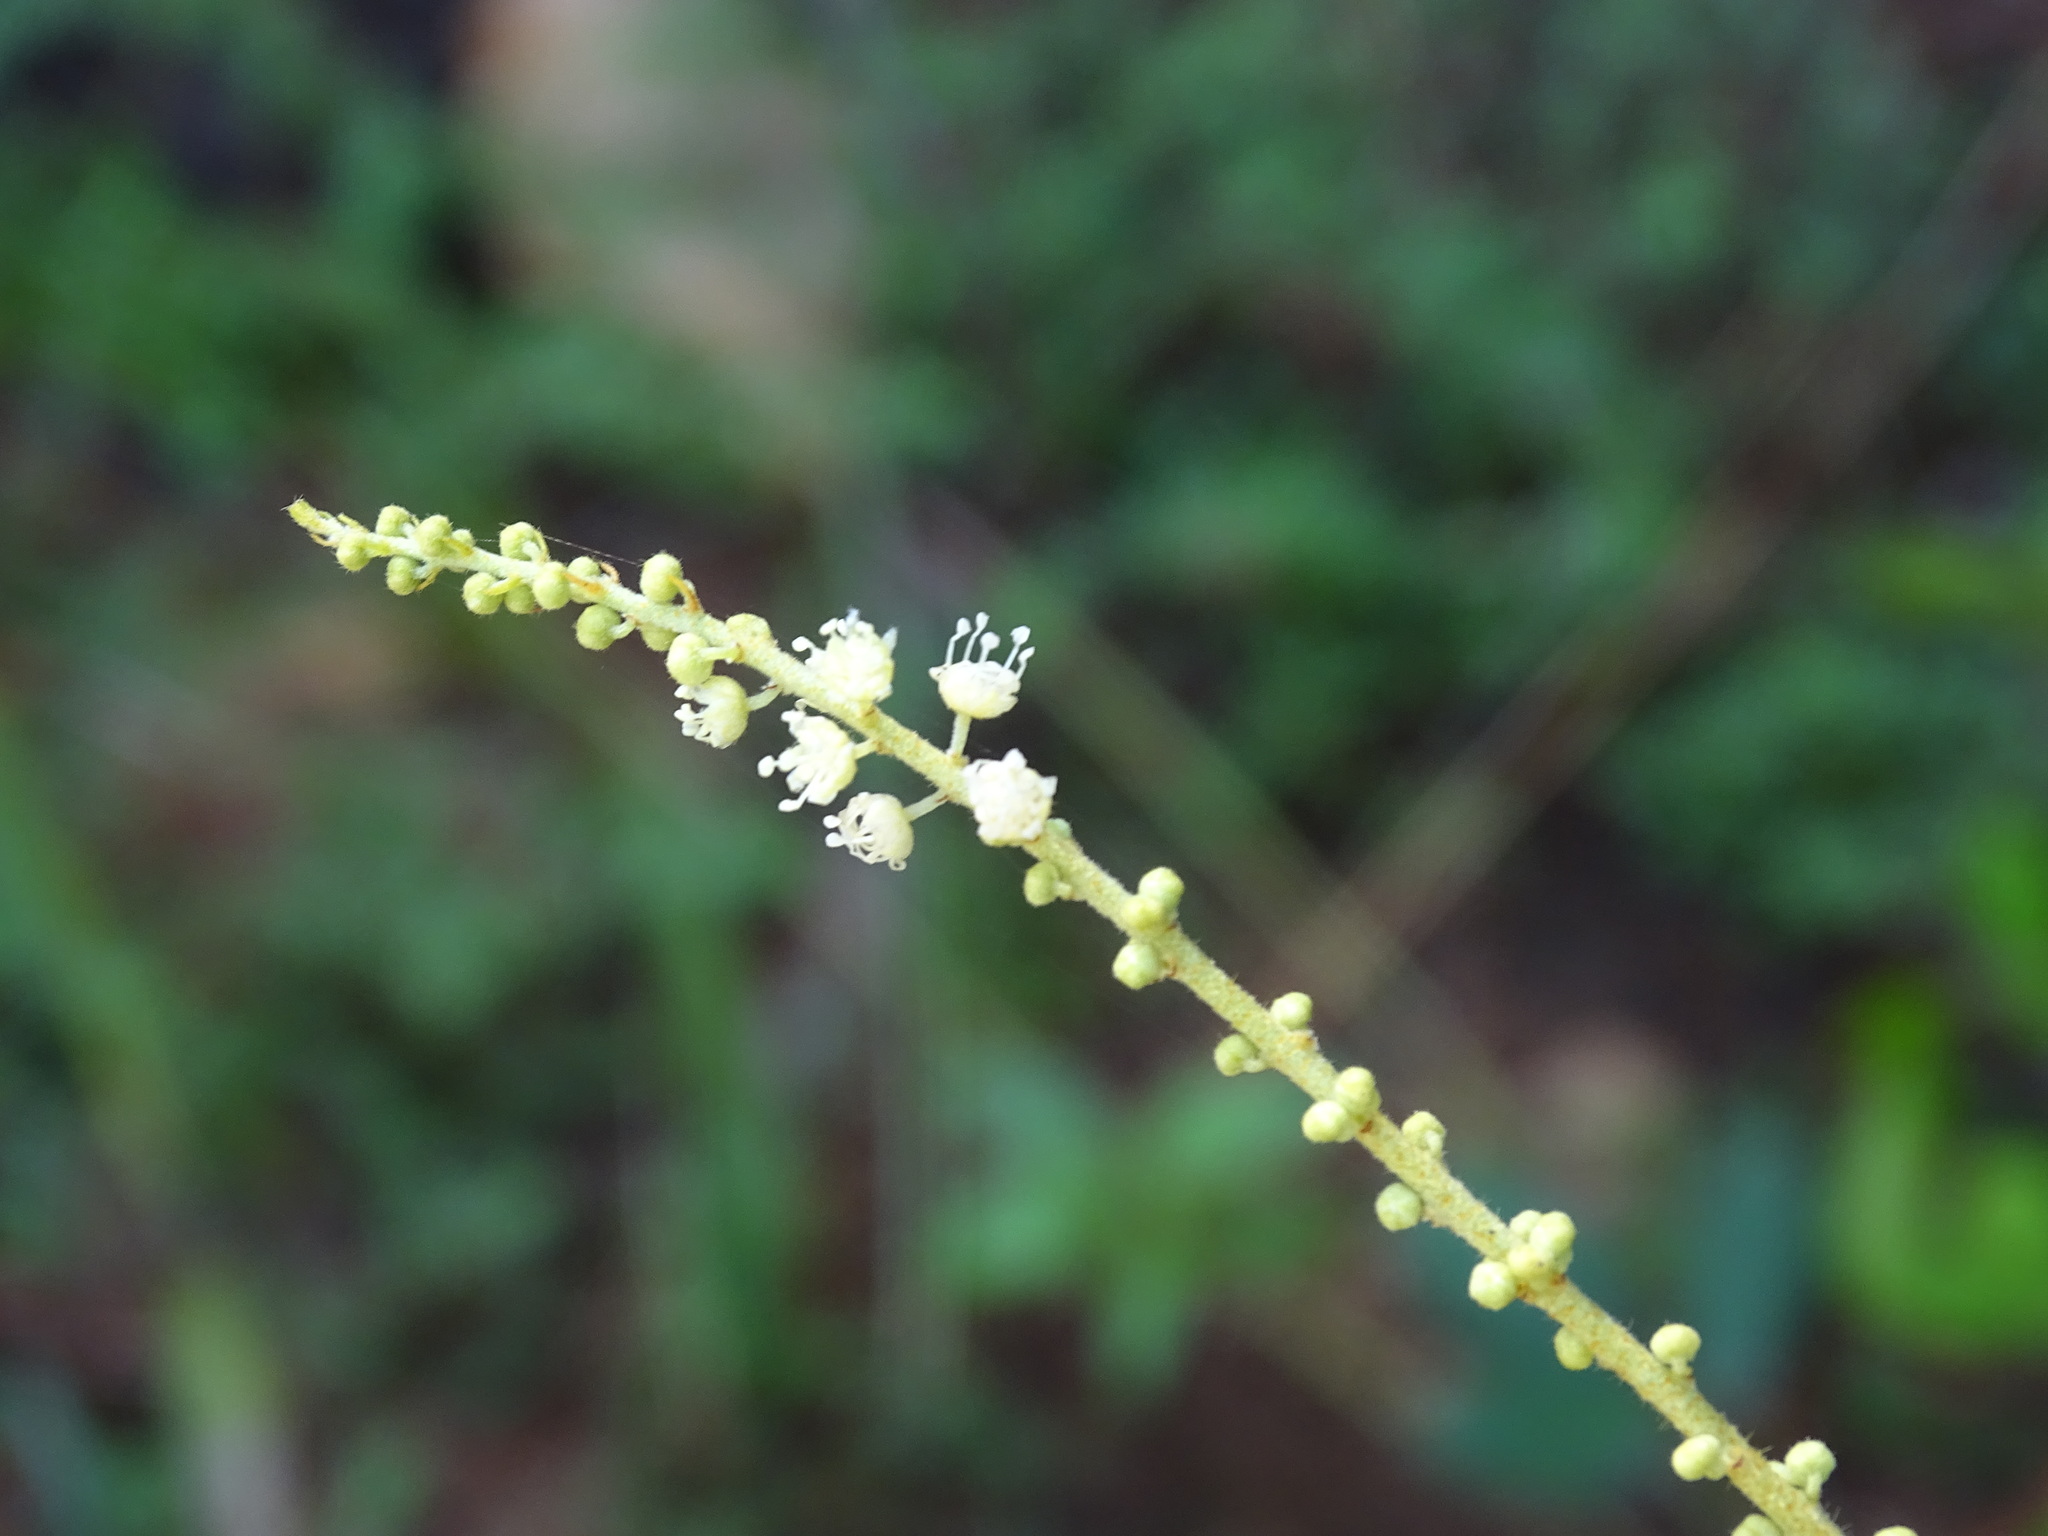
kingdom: Plantae
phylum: Tracheophyta
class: Magnoliopsida
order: Malpighiales
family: Euphorbiaceae
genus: Croton
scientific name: Croton malvavisciifolius
